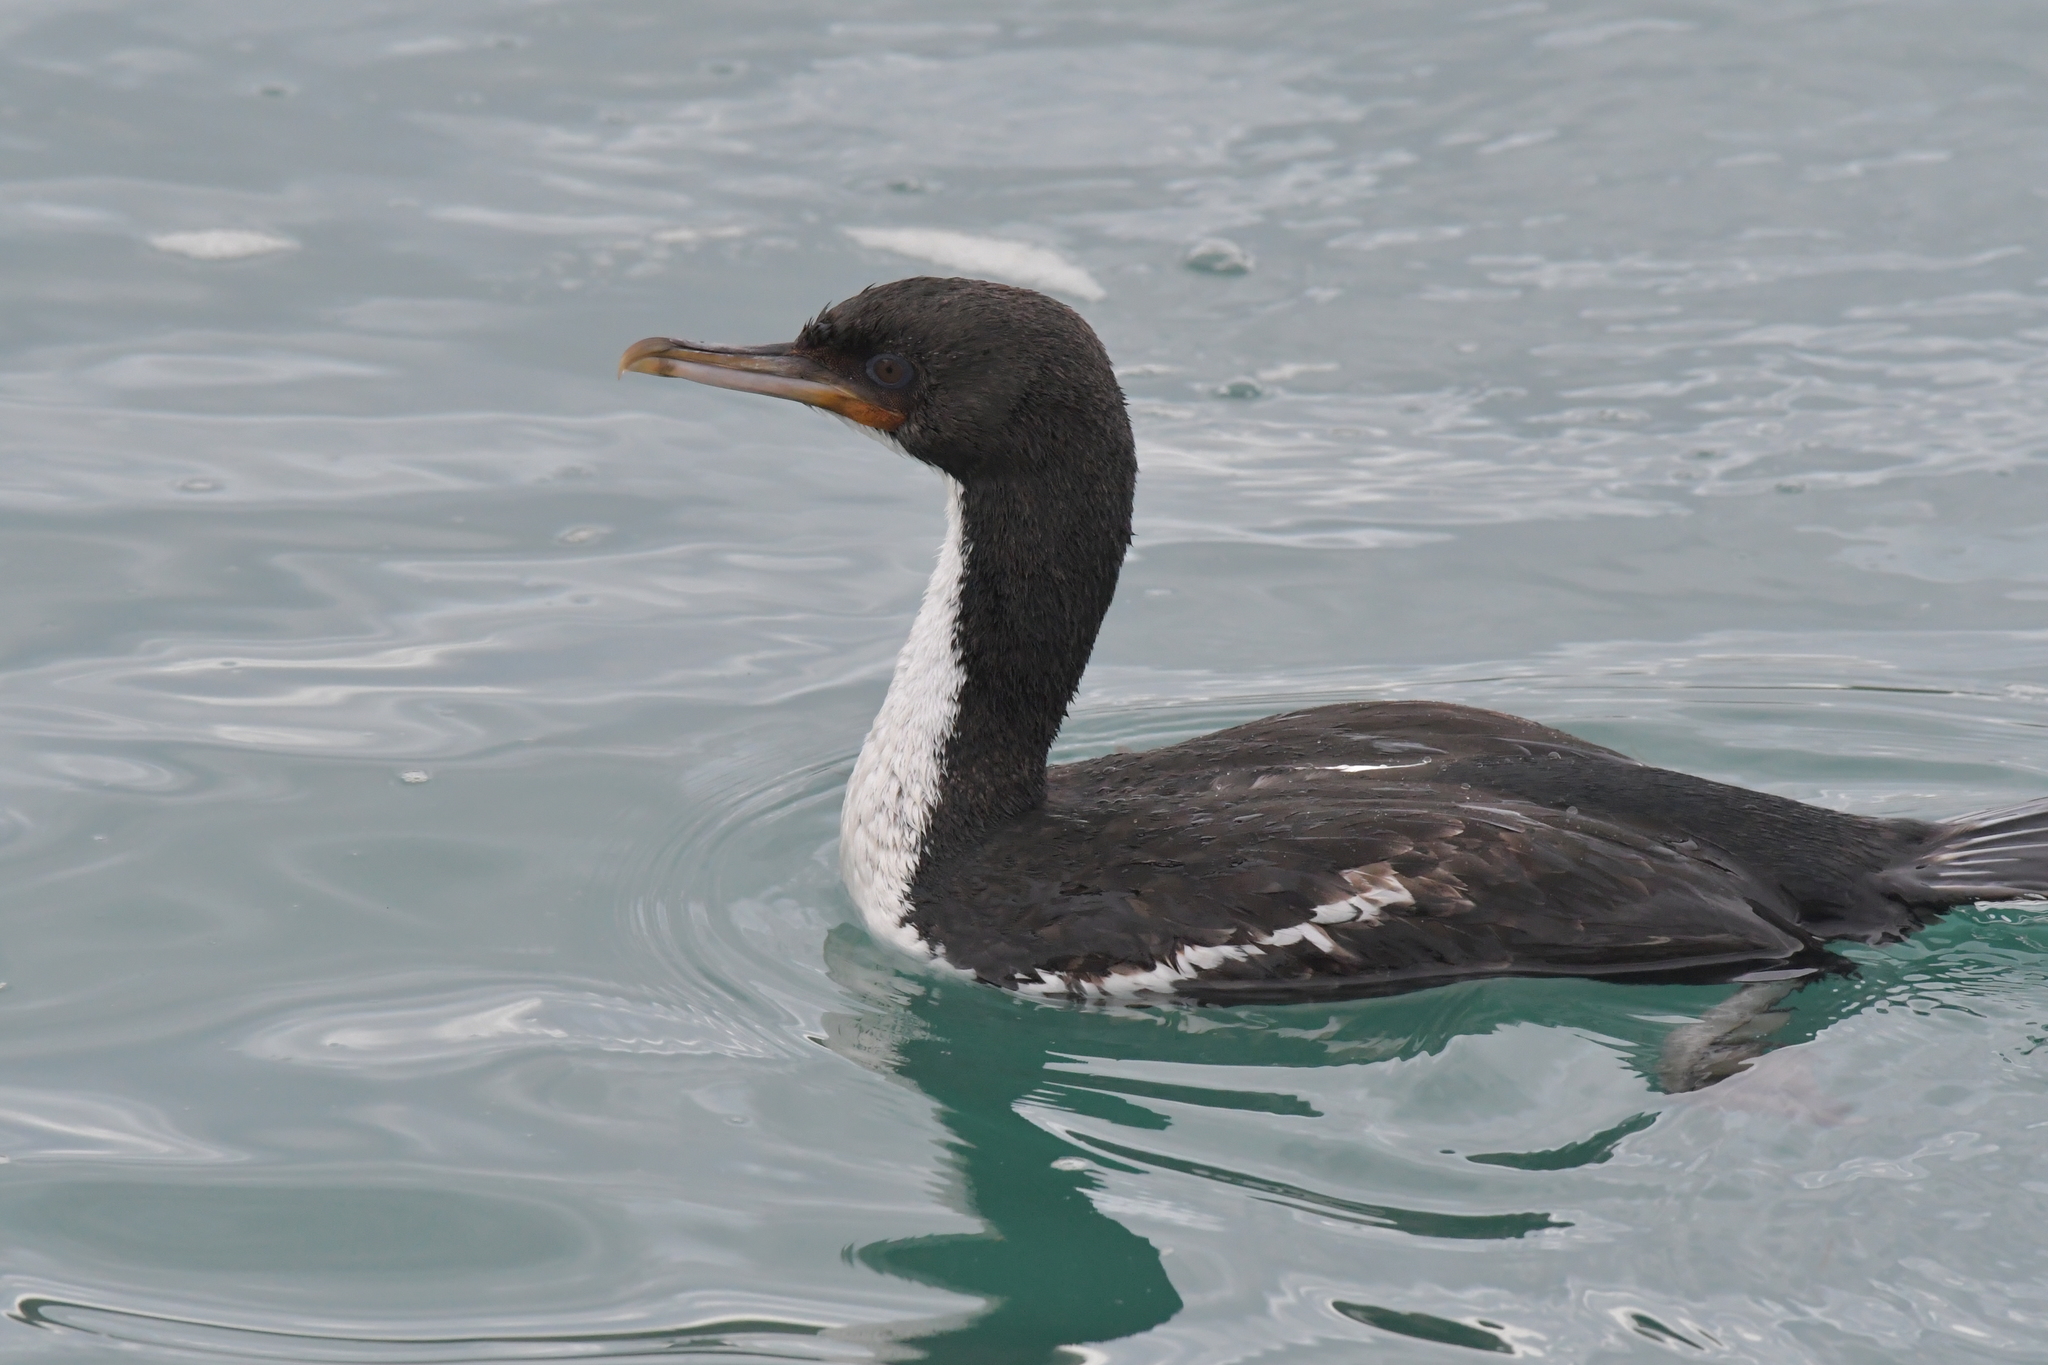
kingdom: Animalia
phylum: Chordata
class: Aves
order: Suliformes
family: Phalacrocoracidae
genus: Leucocarbo
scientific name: Leucocarbo chalconotus
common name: Stewart shag
